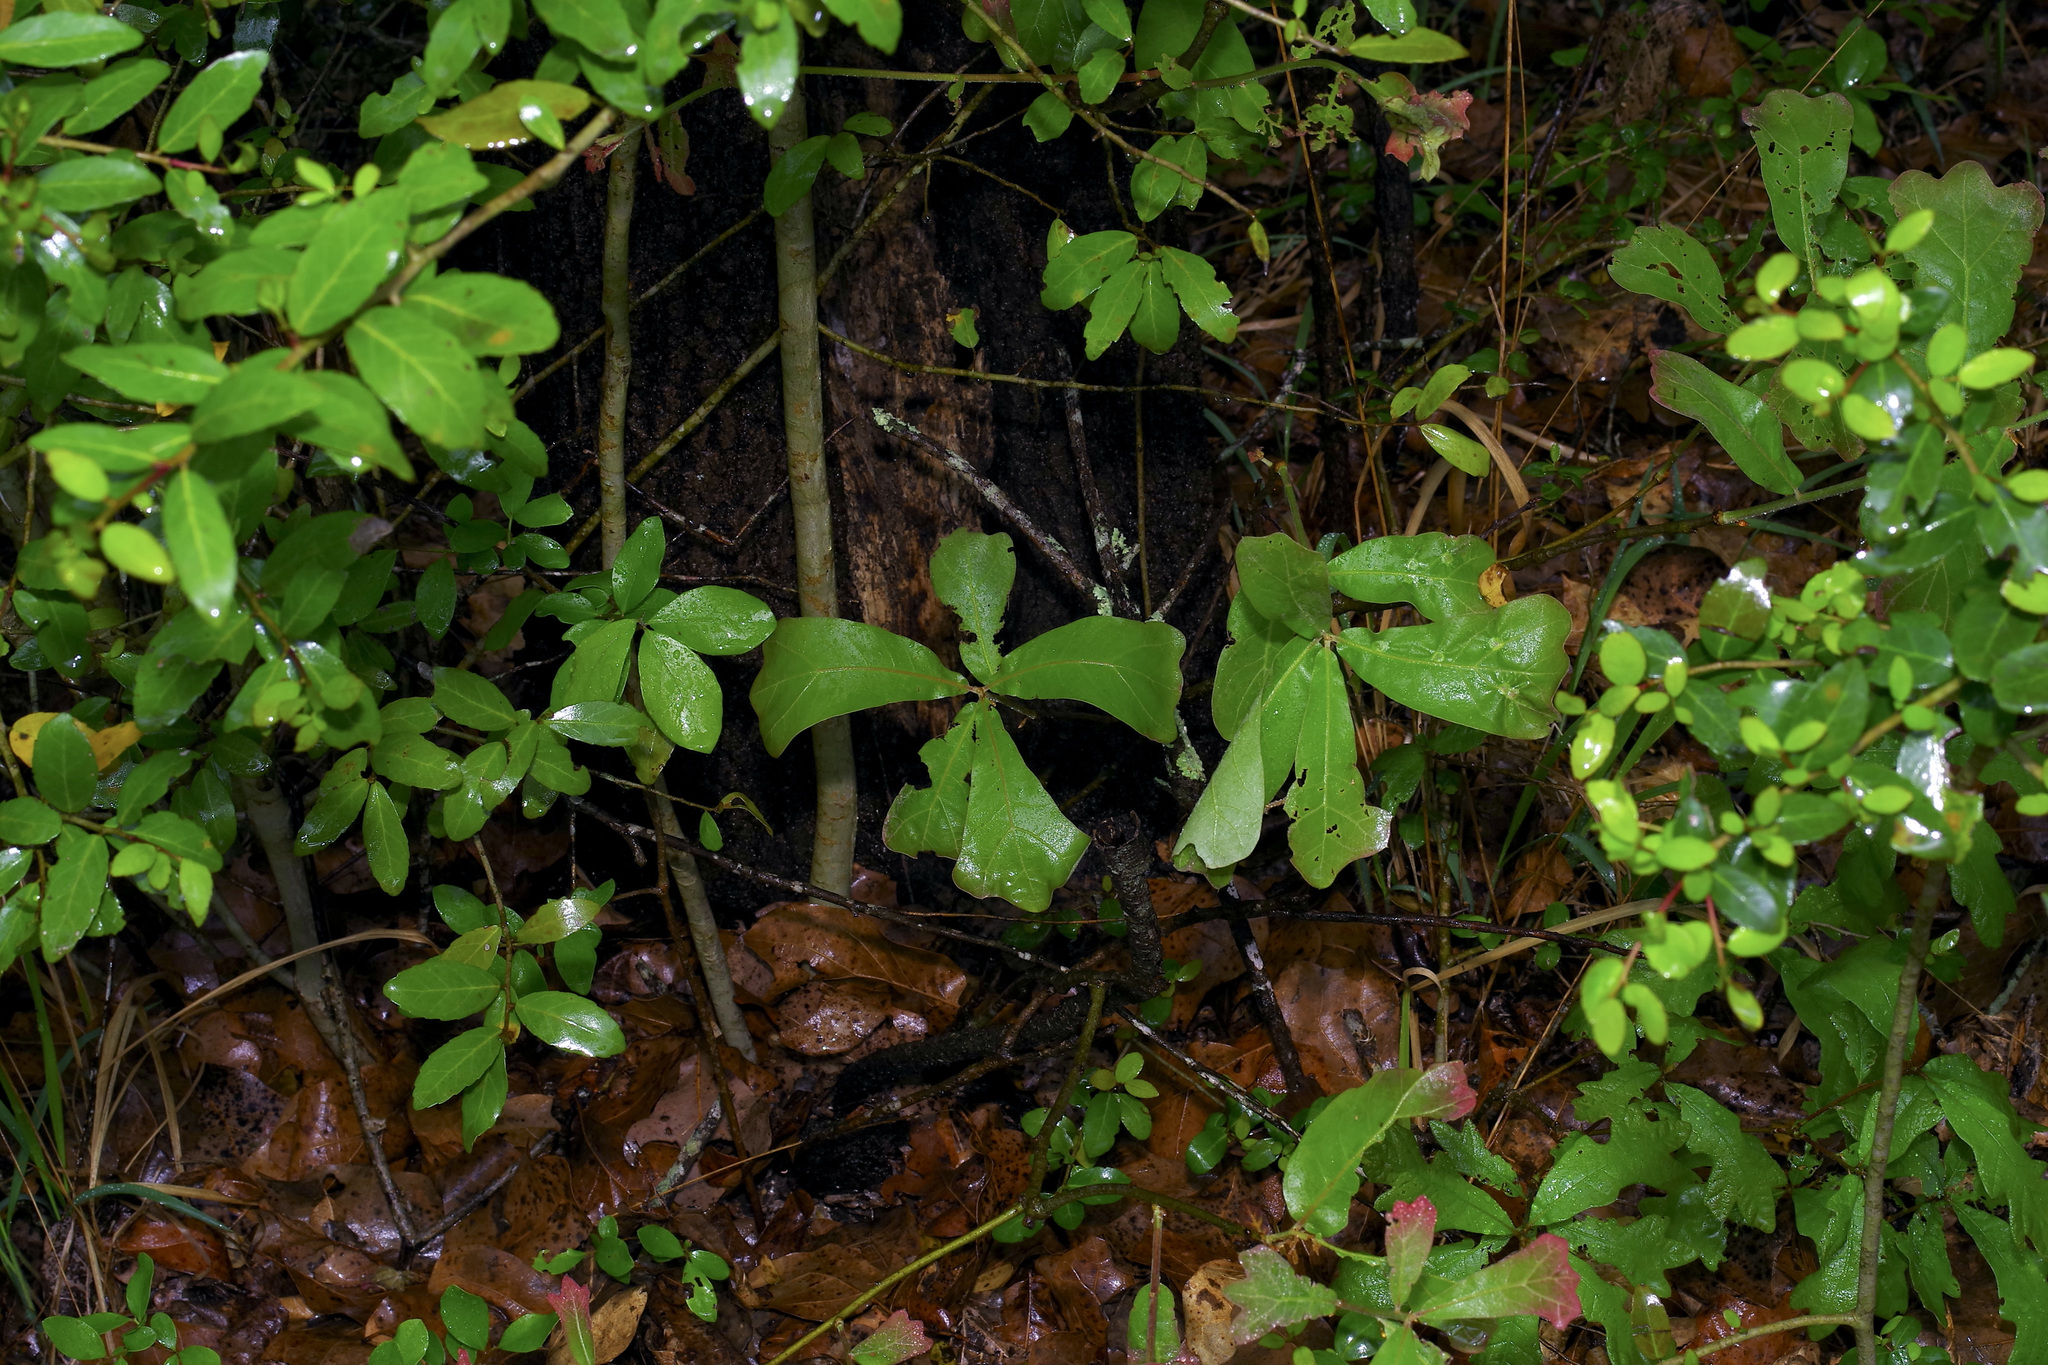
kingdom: Plantae
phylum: Tracheophyta
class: Magnoliopsida
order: Fagales
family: Fagaceae
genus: Quercus
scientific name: Quercus nigra
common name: Water oak
